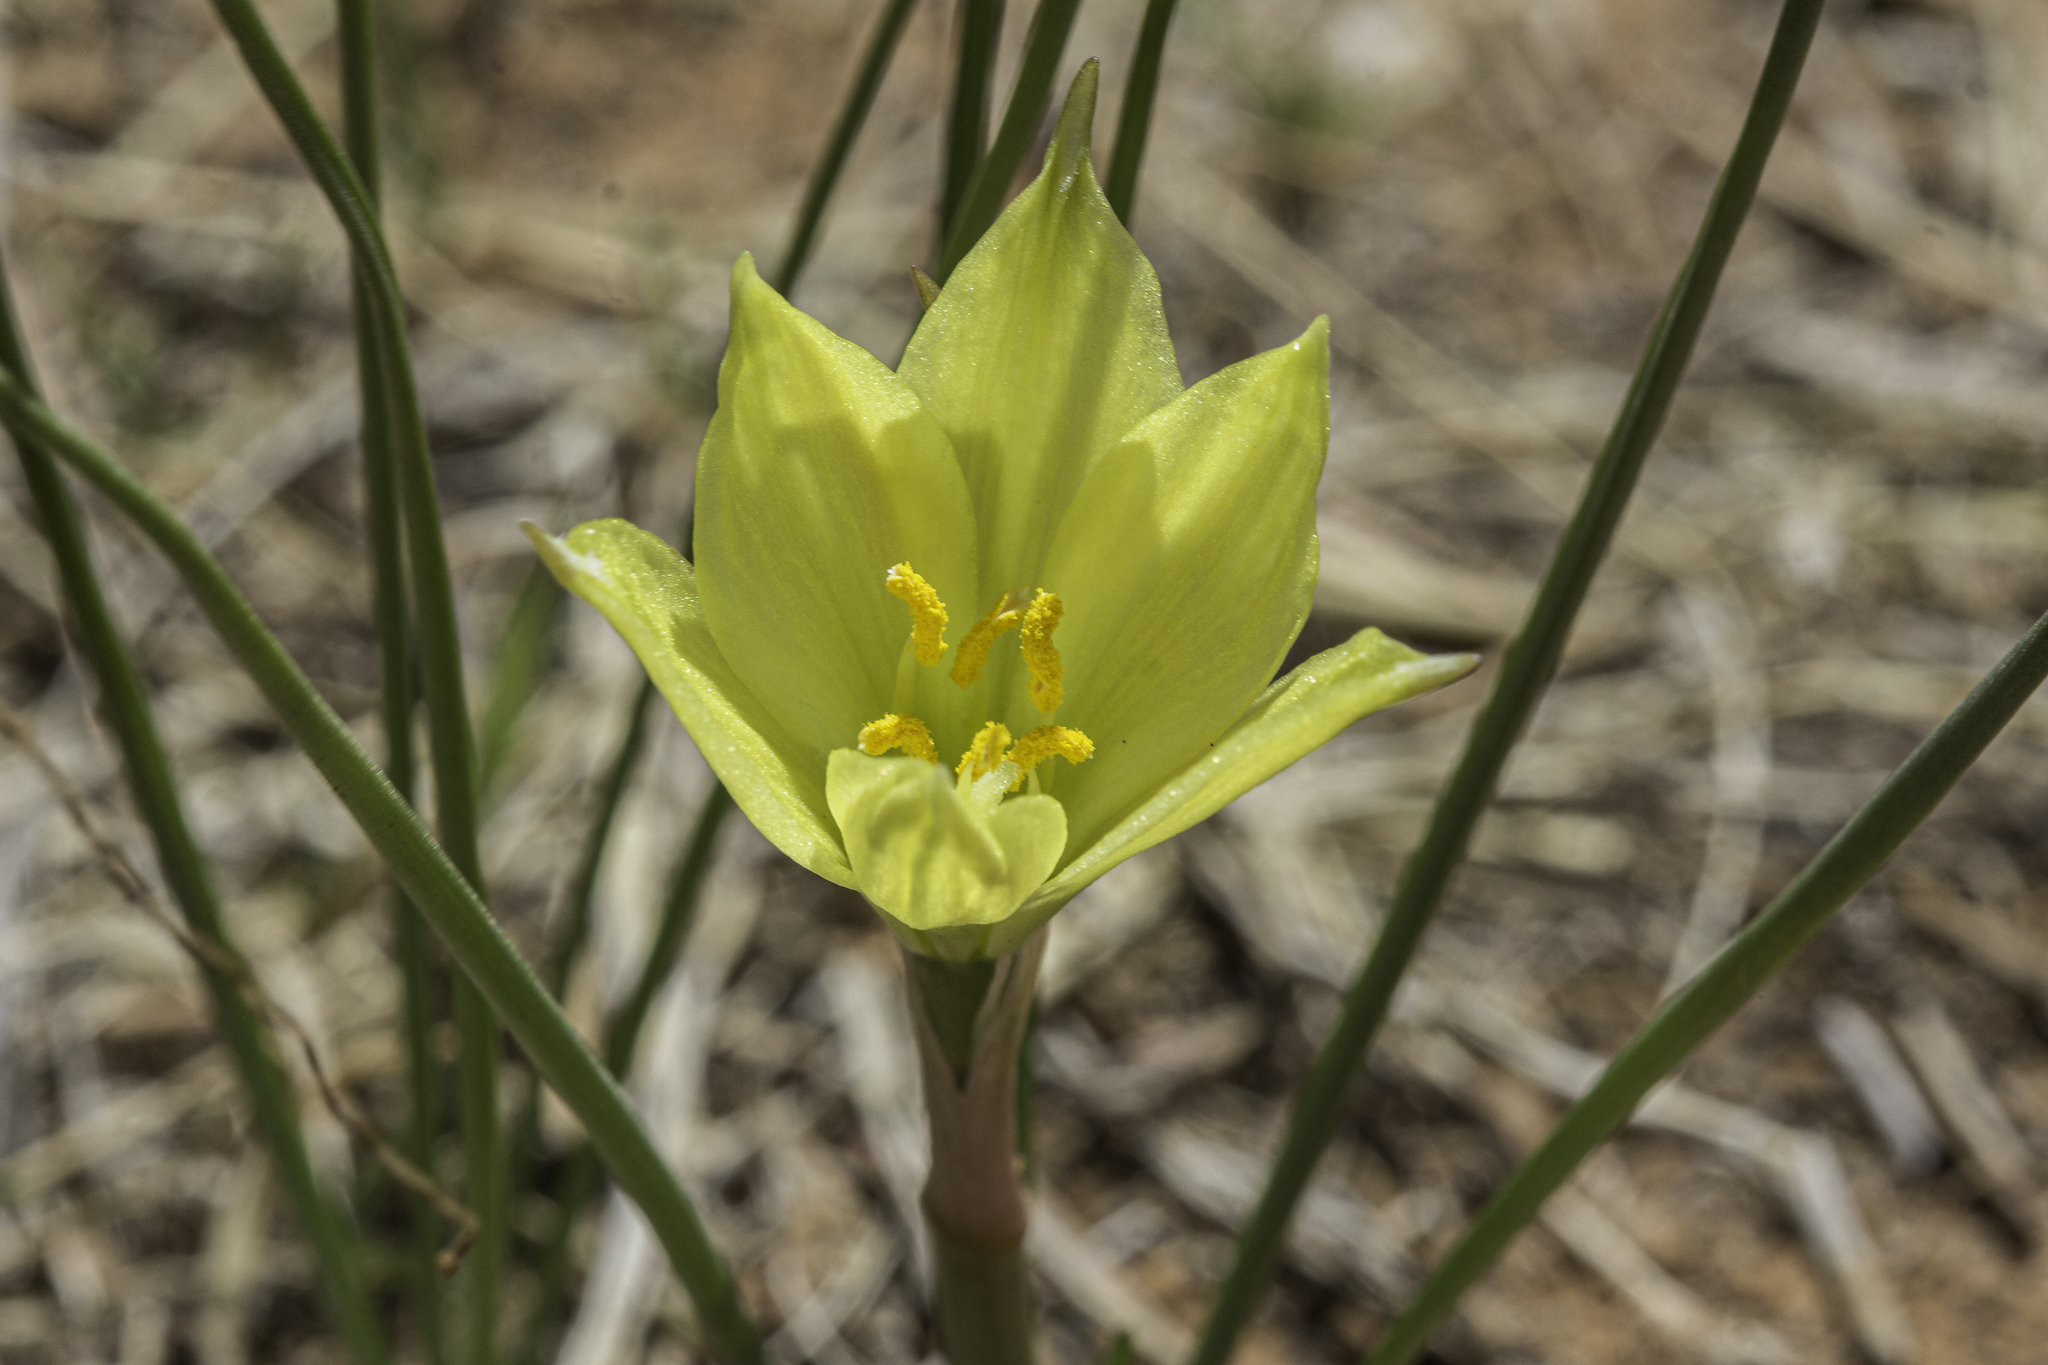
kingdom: Plantae
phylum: Tracheophyta
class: Liliopsida
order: Asparagales
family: Amaryllidaceae
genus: Zephyranthes
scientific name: Zephyranthes longifolia
